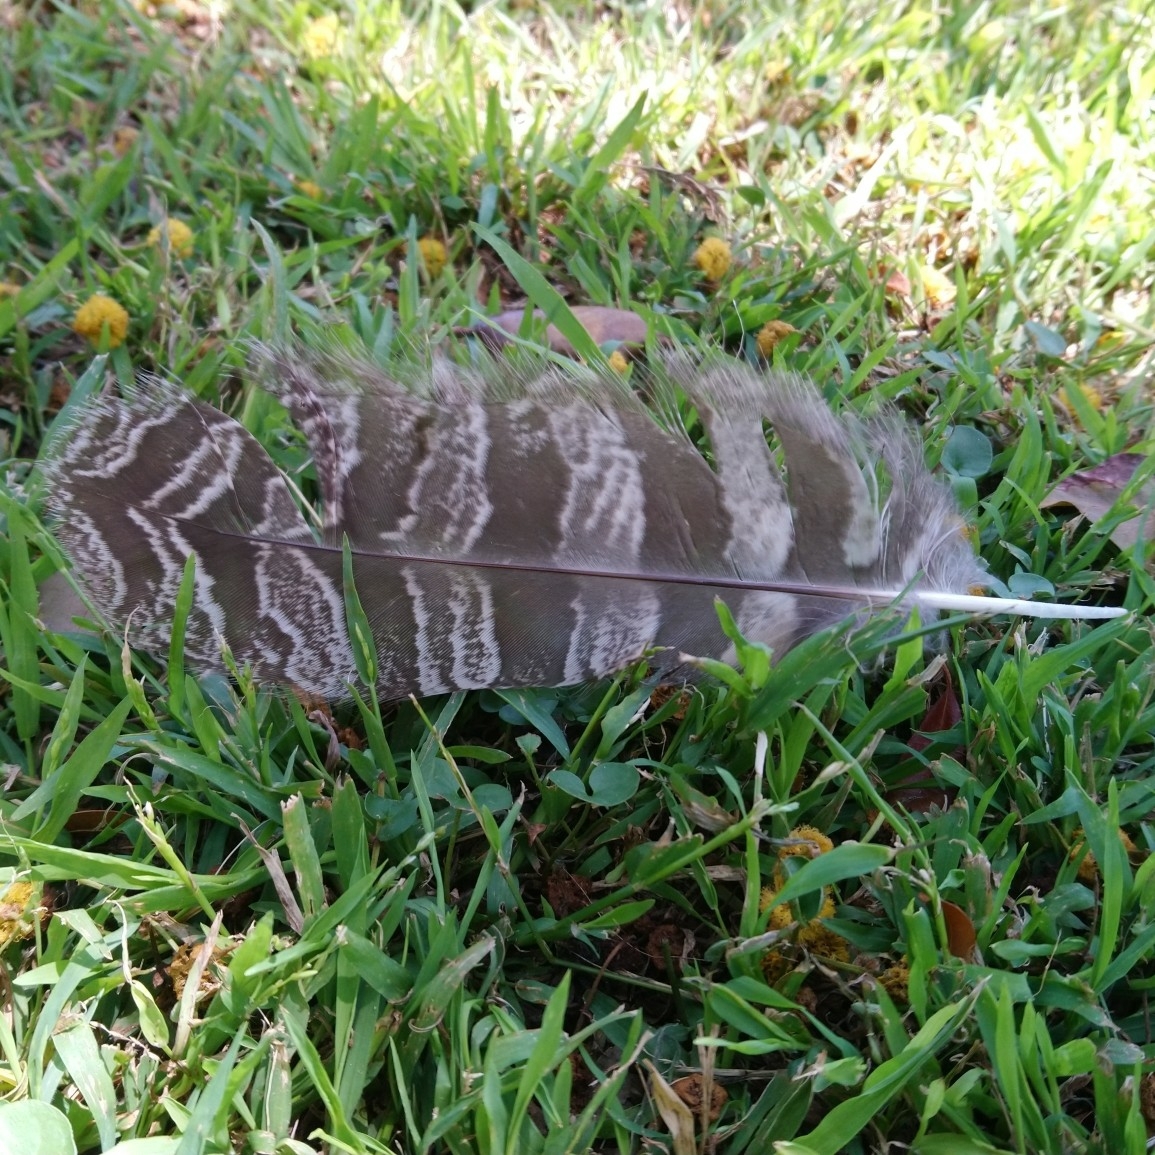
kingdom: Animalia
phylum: Chordata
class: Aves
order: Strigiformes
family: Strigidae
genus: Bubo
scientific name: Bubo africanus
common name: Spotted eagle-owl
